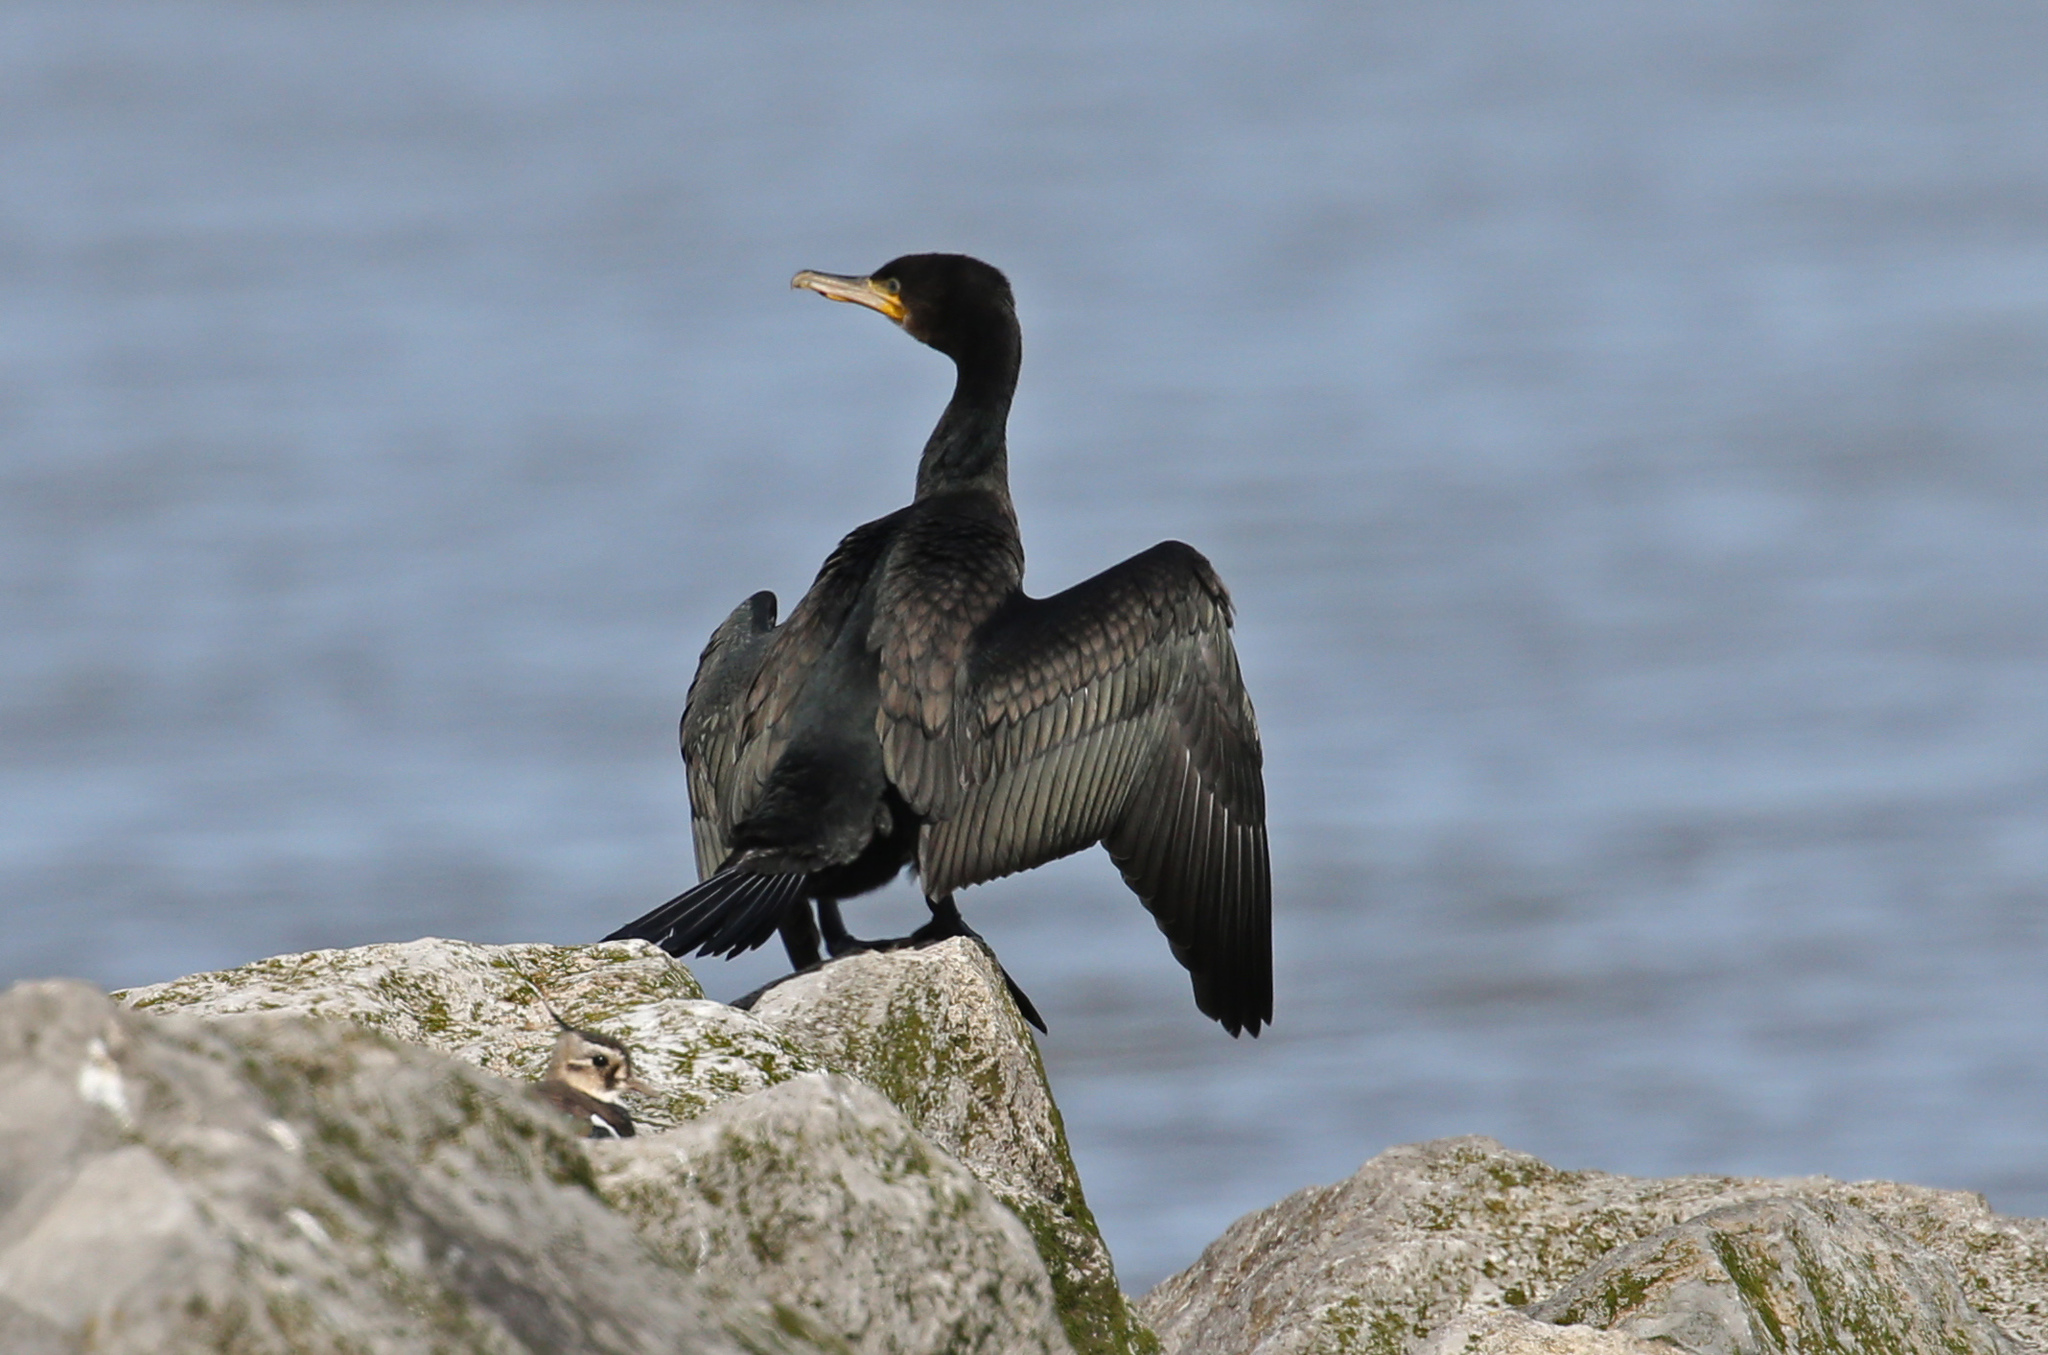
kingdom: Animalia
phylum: Chordata
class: Aves
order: Suliformes
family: Phalacrocoracidae
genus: Phalacrocorax
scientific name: Phalacrocorax carbo
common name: Great cormorant
